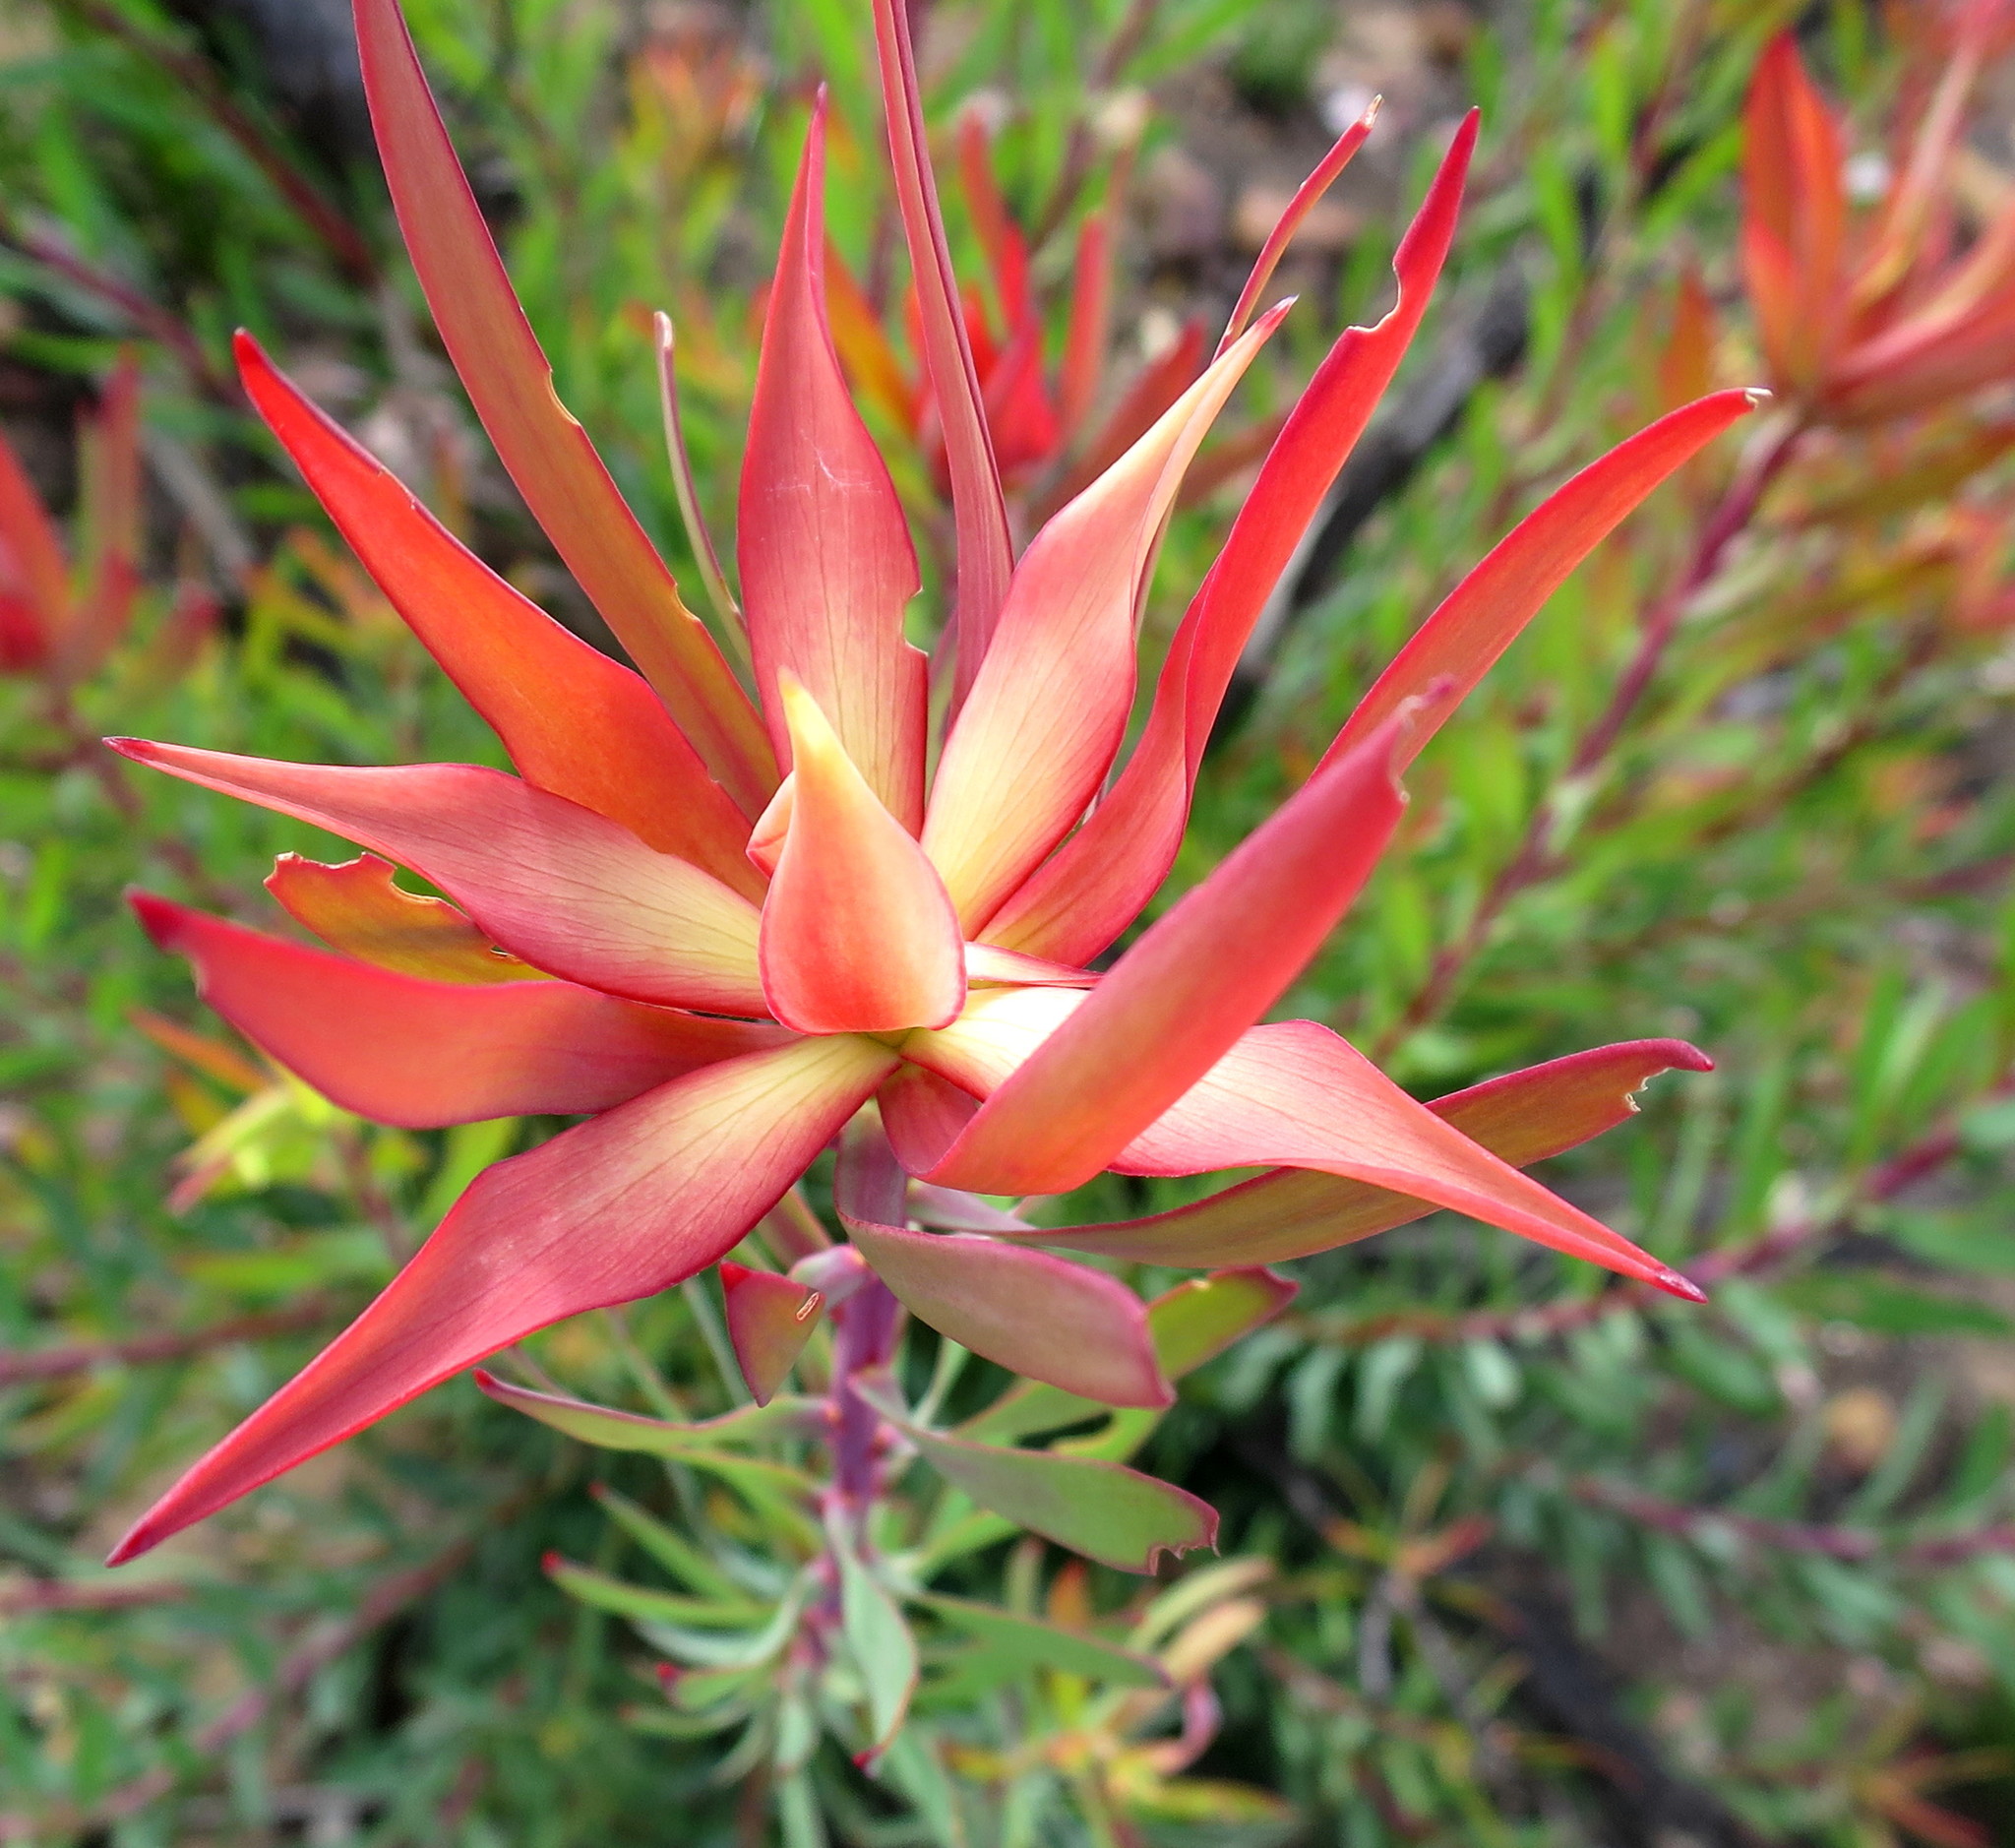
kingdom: Plantae
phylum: Tracheophyta
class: Magnoliopsida
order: Proteales
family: Proteaceae
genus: Leucadendron
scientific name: Leucadendron salignum
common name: Common sunshine conebush
